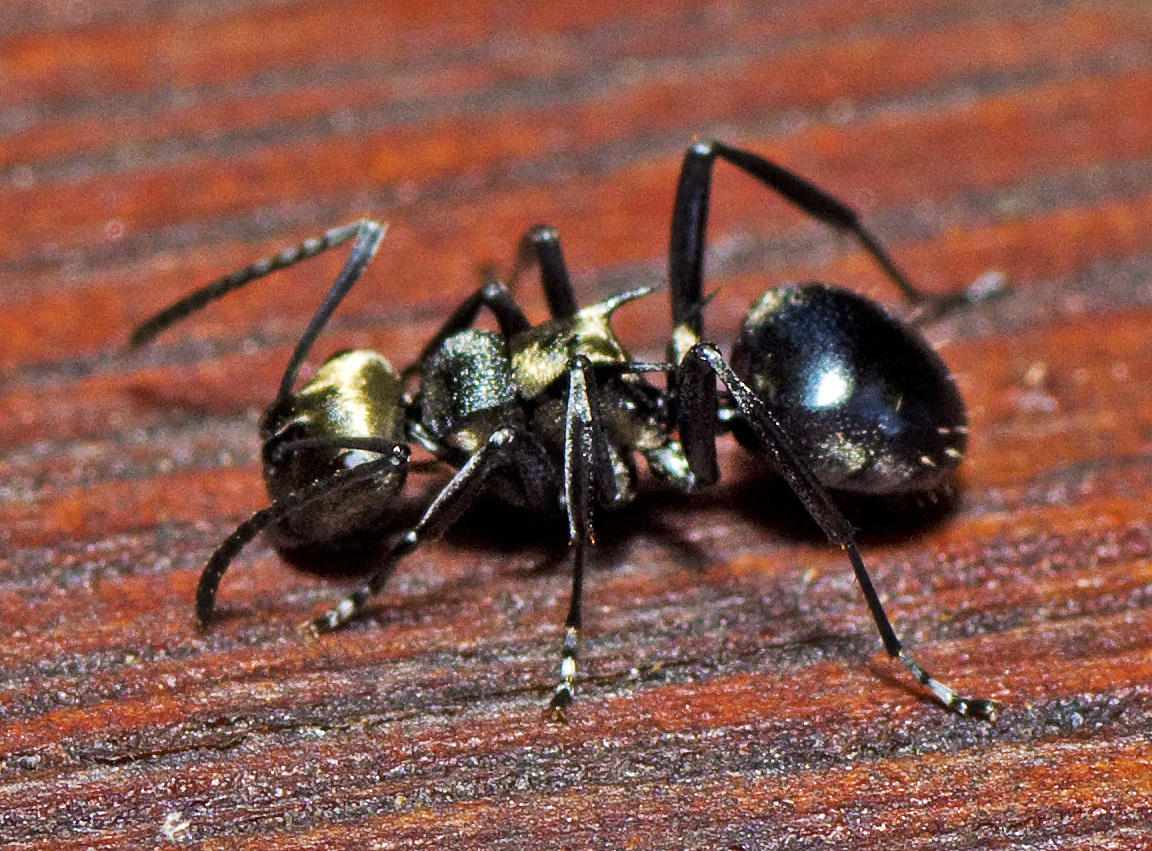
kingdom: Animalia
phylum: Arthropoda
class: Insecta
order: Hymenoptera
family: Formicidae
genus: Polyrhachis
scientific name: Polyrhachis cleopatra
